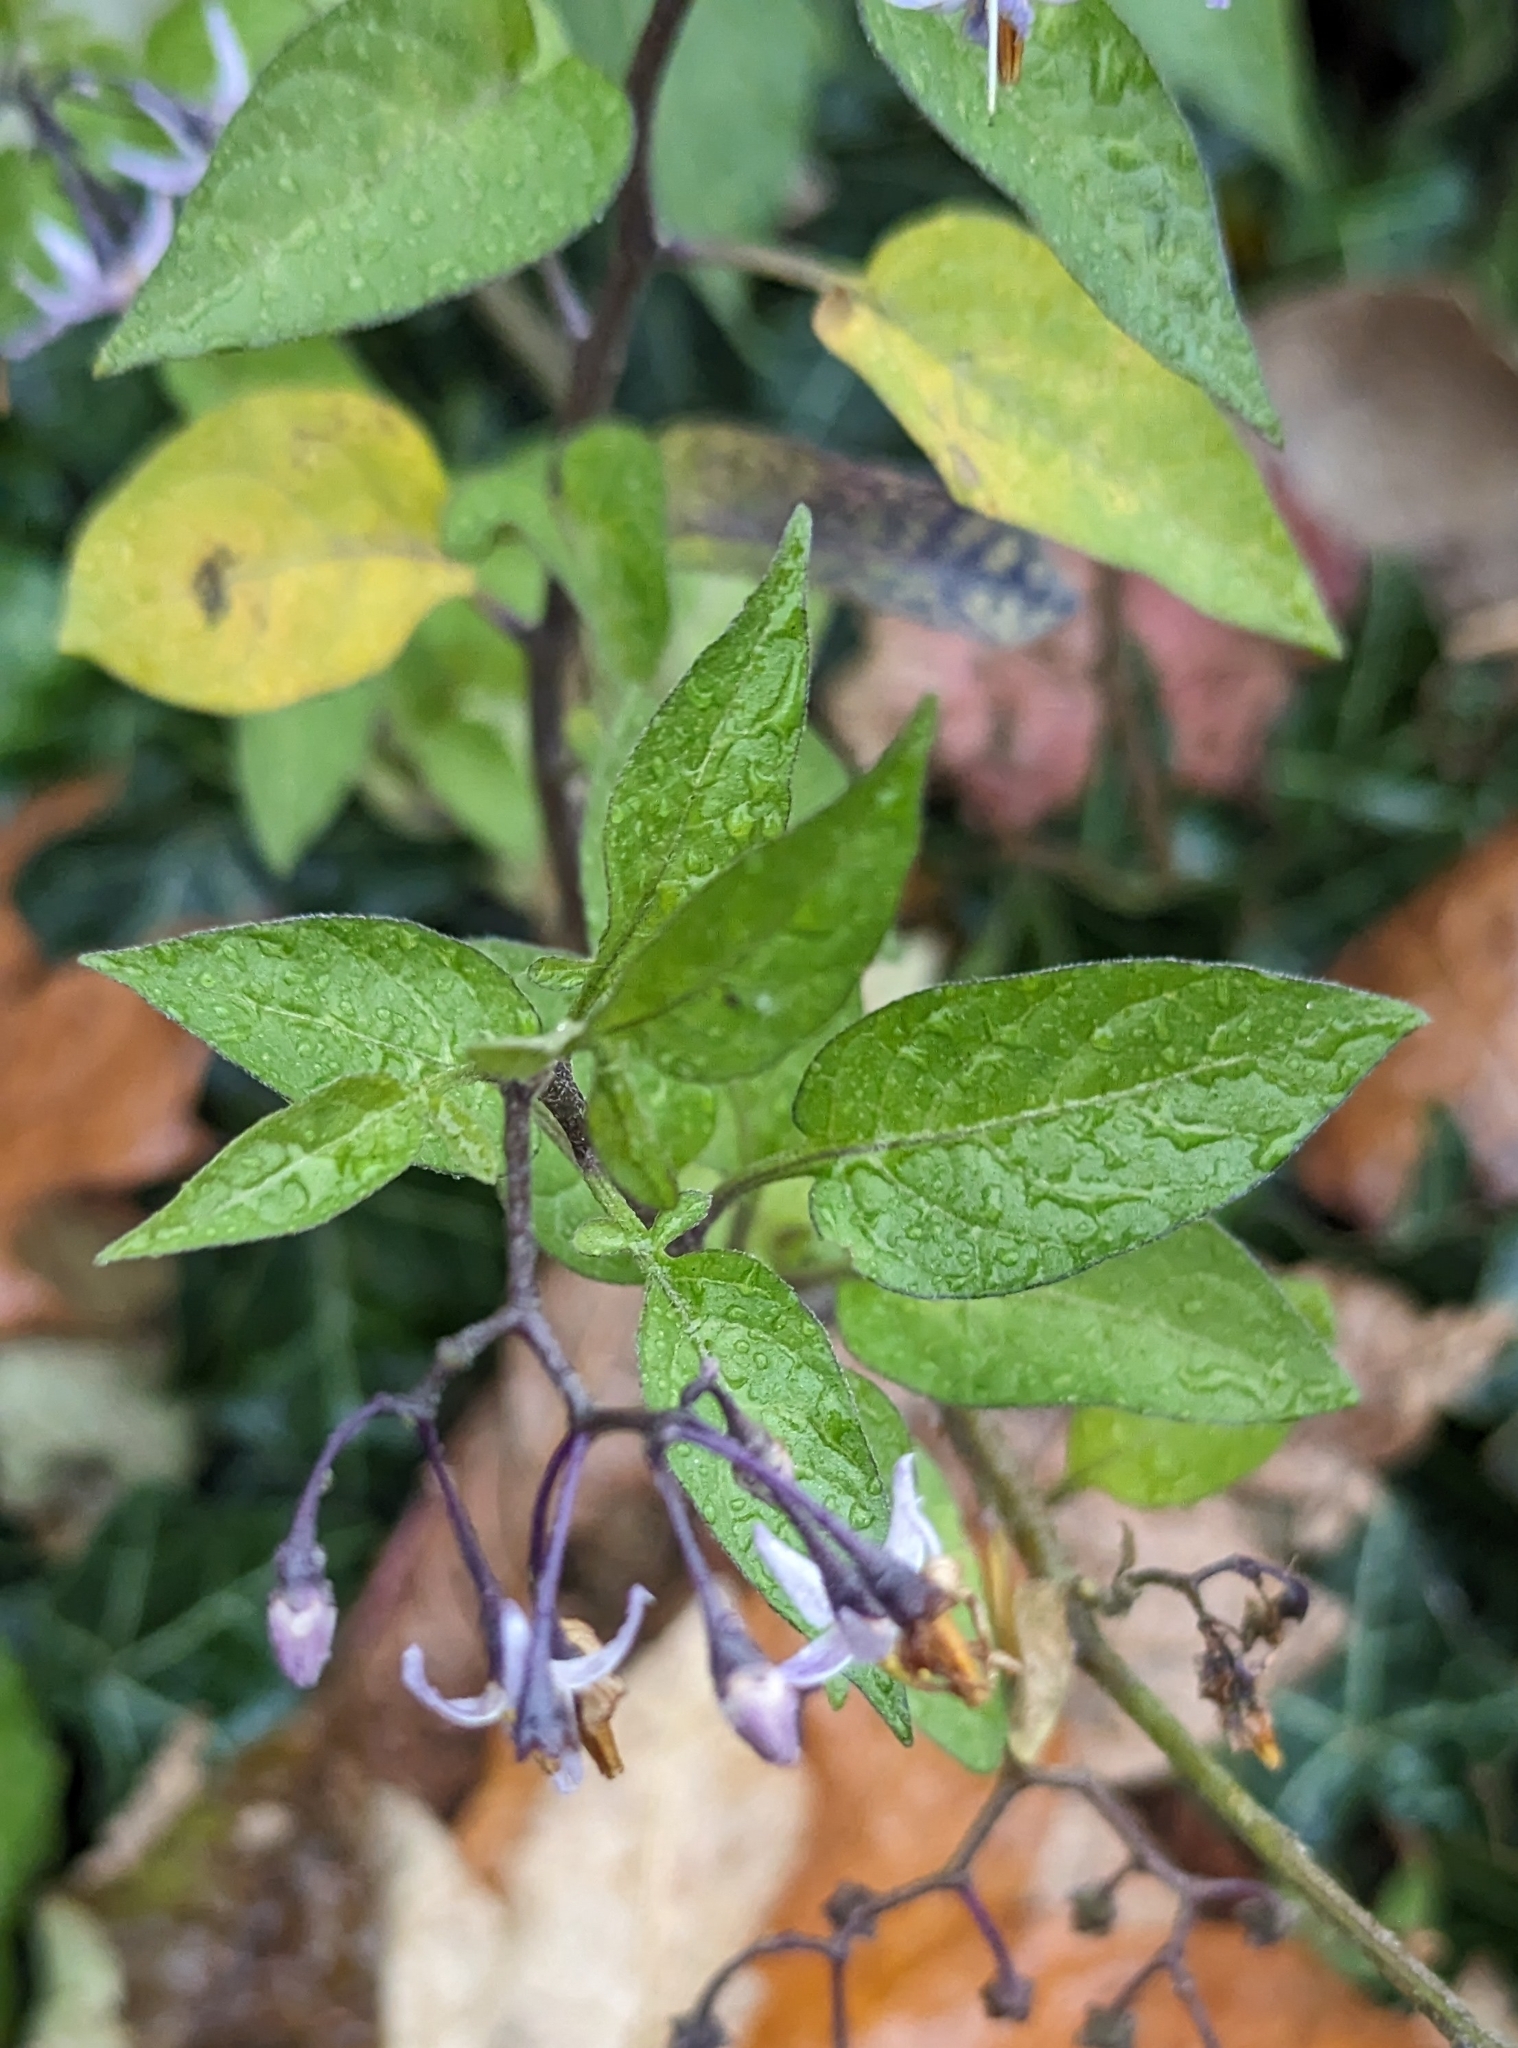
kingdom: Plantae
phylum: Tracheophyta
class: Magnoliopsida
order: Solanales
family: Solanaceae
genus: Solanum
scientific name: Solanum dulcamara
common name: Climbing nightshade
